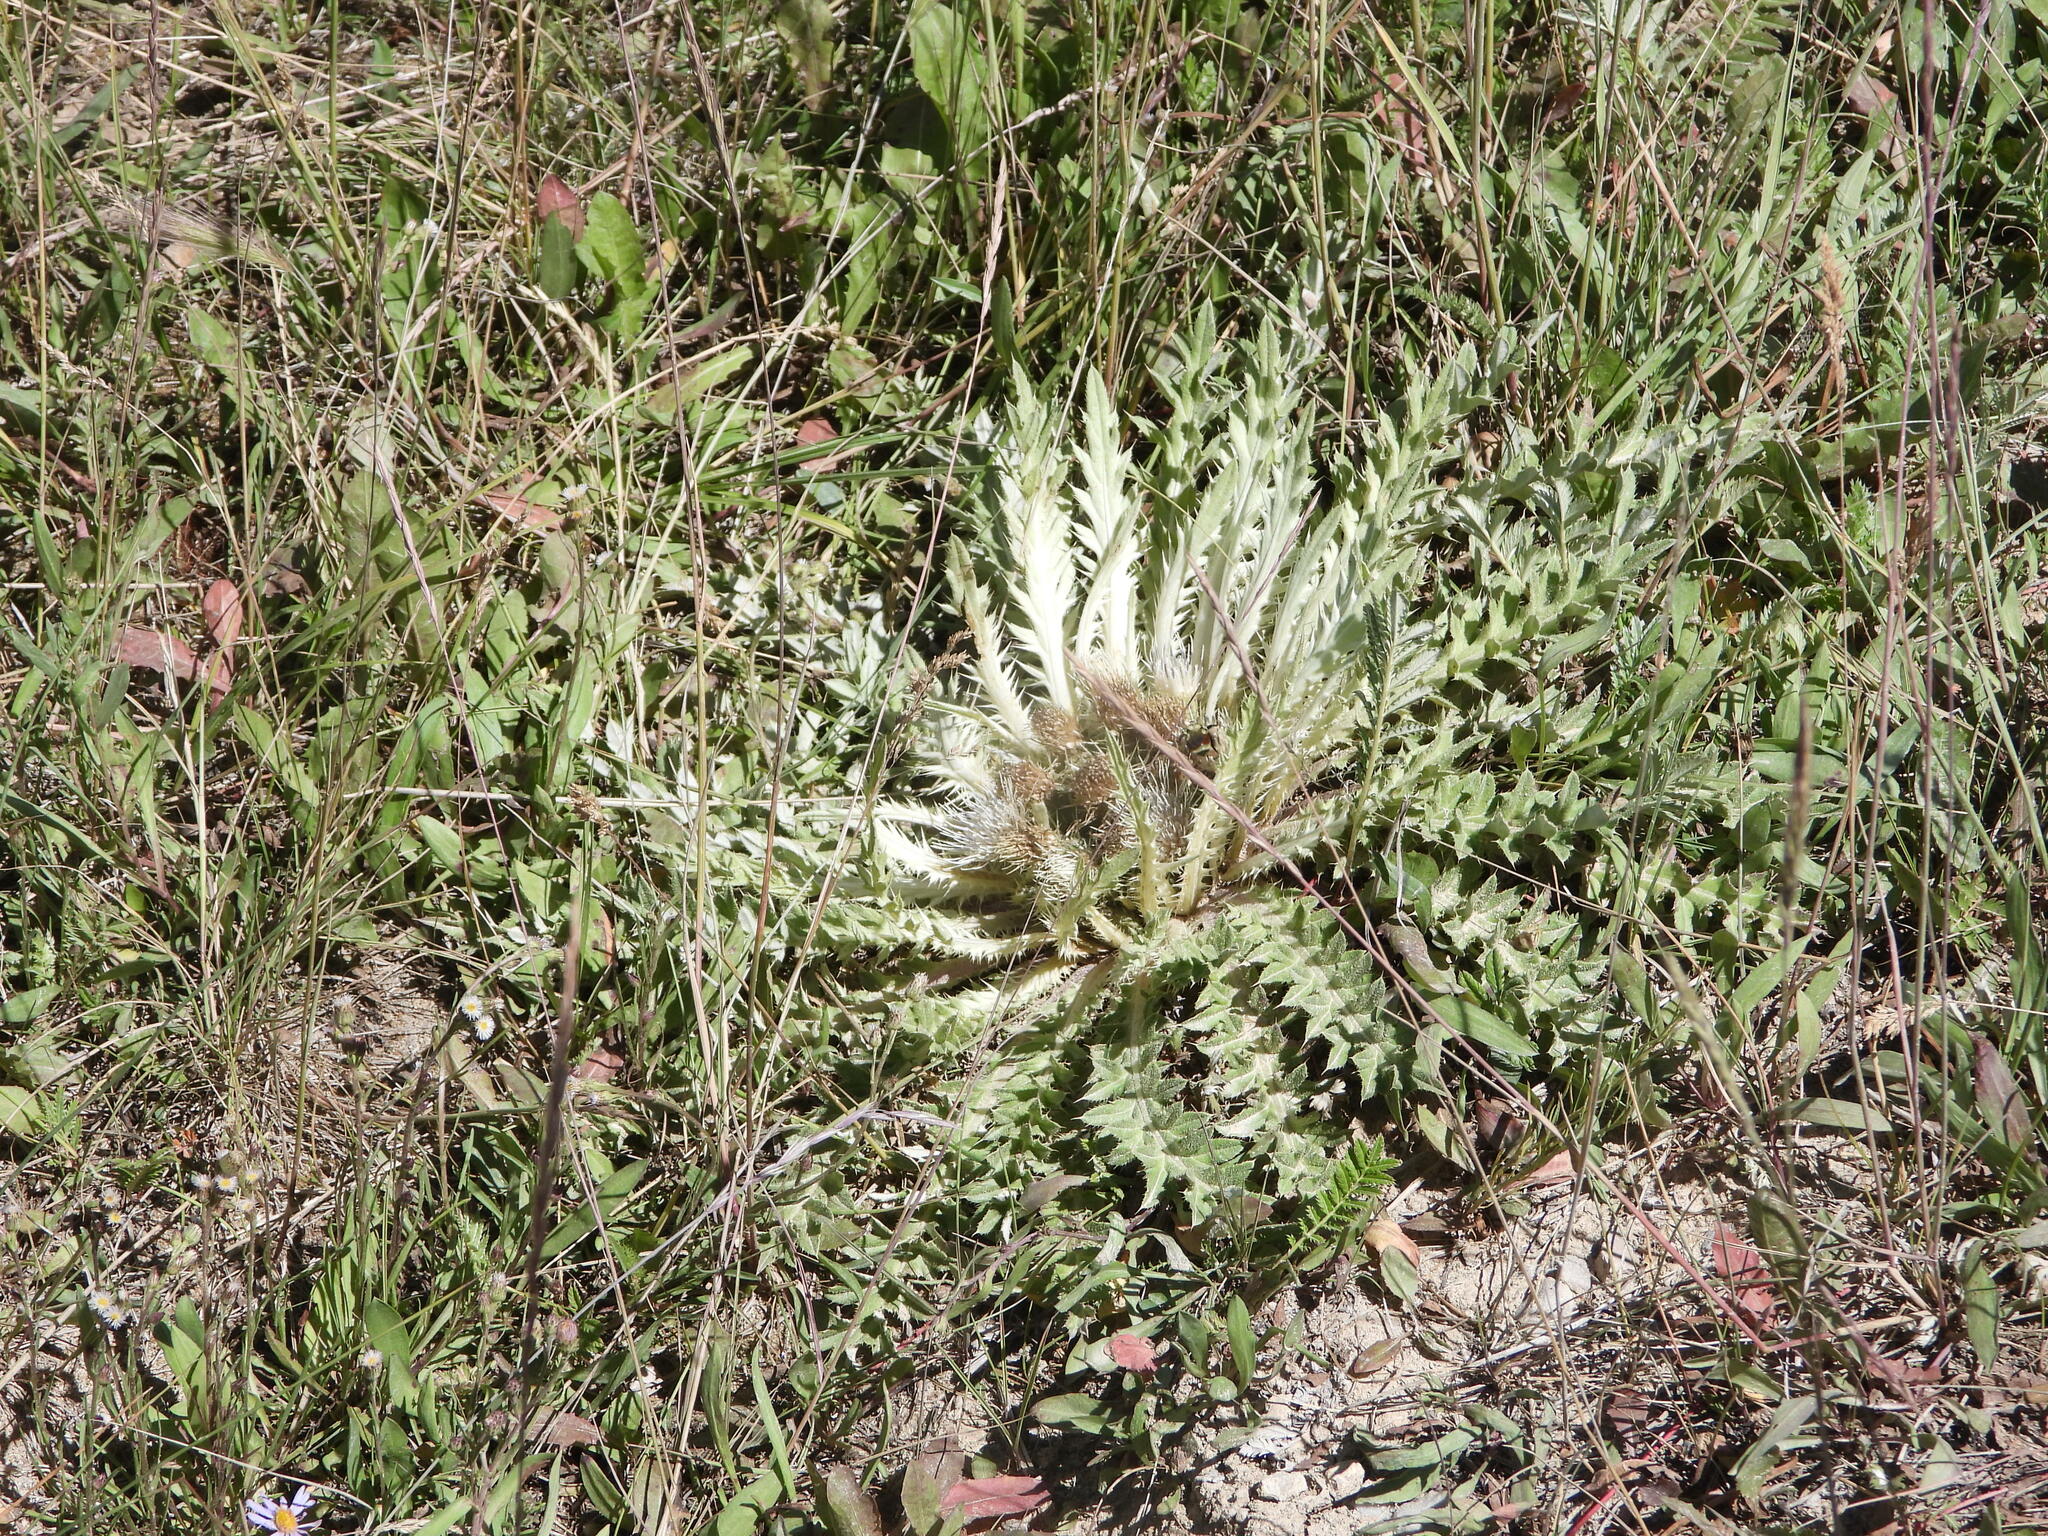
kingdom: Plantae
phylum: Tracheophyta
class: Magnoliopsida
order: Asterales
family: Asteraceae
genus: Cirsium
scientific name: Cirsium tioganum
